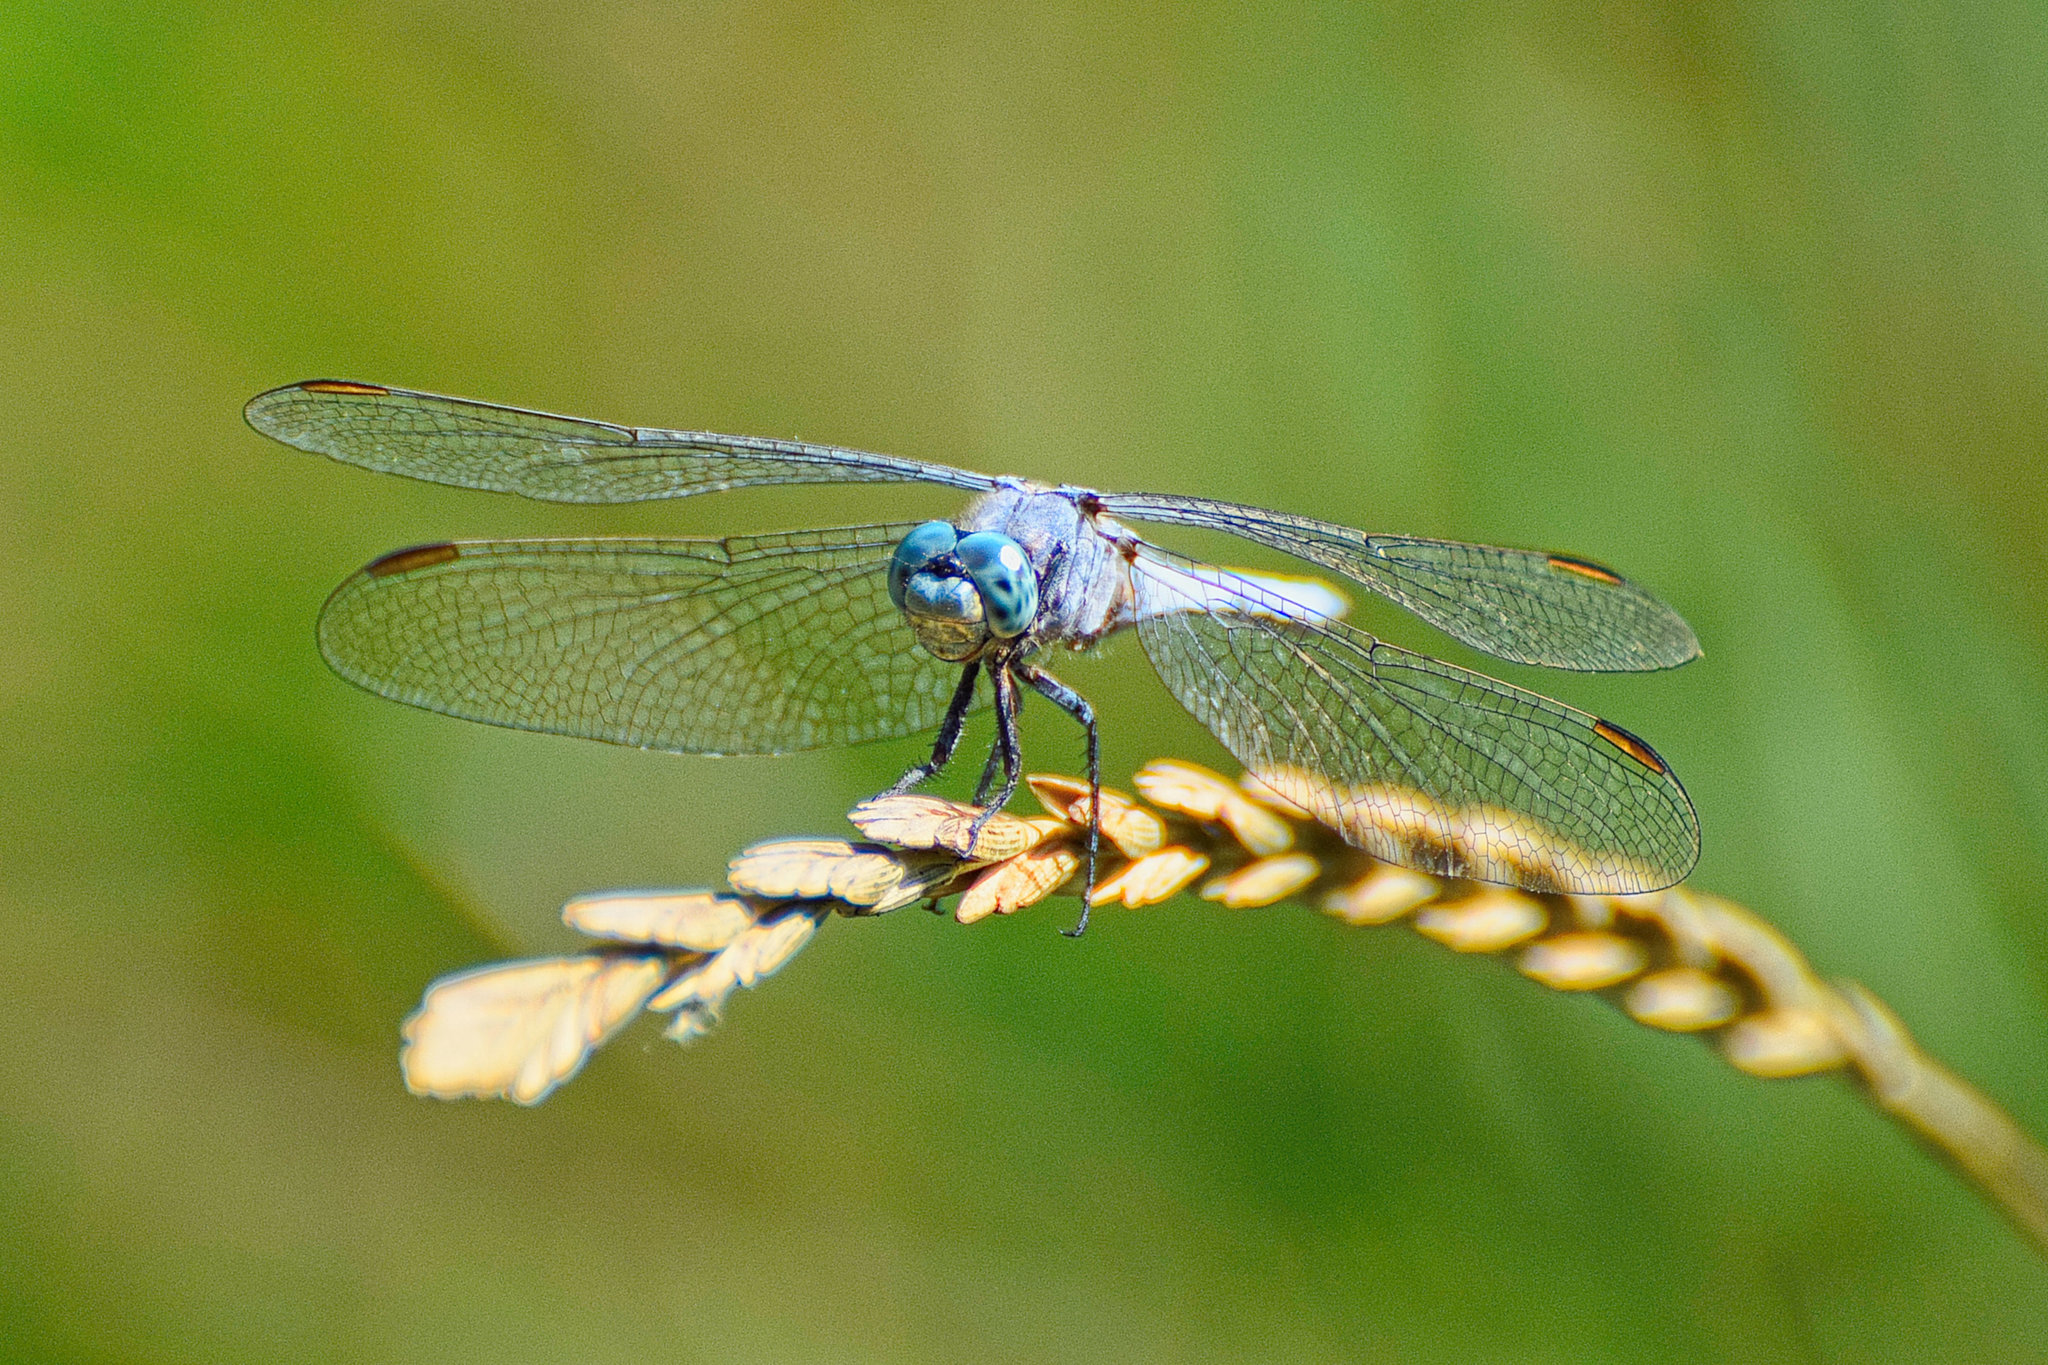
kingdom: Animalia
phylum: Arthropoda
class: Insecta
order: Odonata
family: Libellulidae
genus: Orthetrum
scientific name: Orthetrum coerulescens
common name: Keeled skimmer
